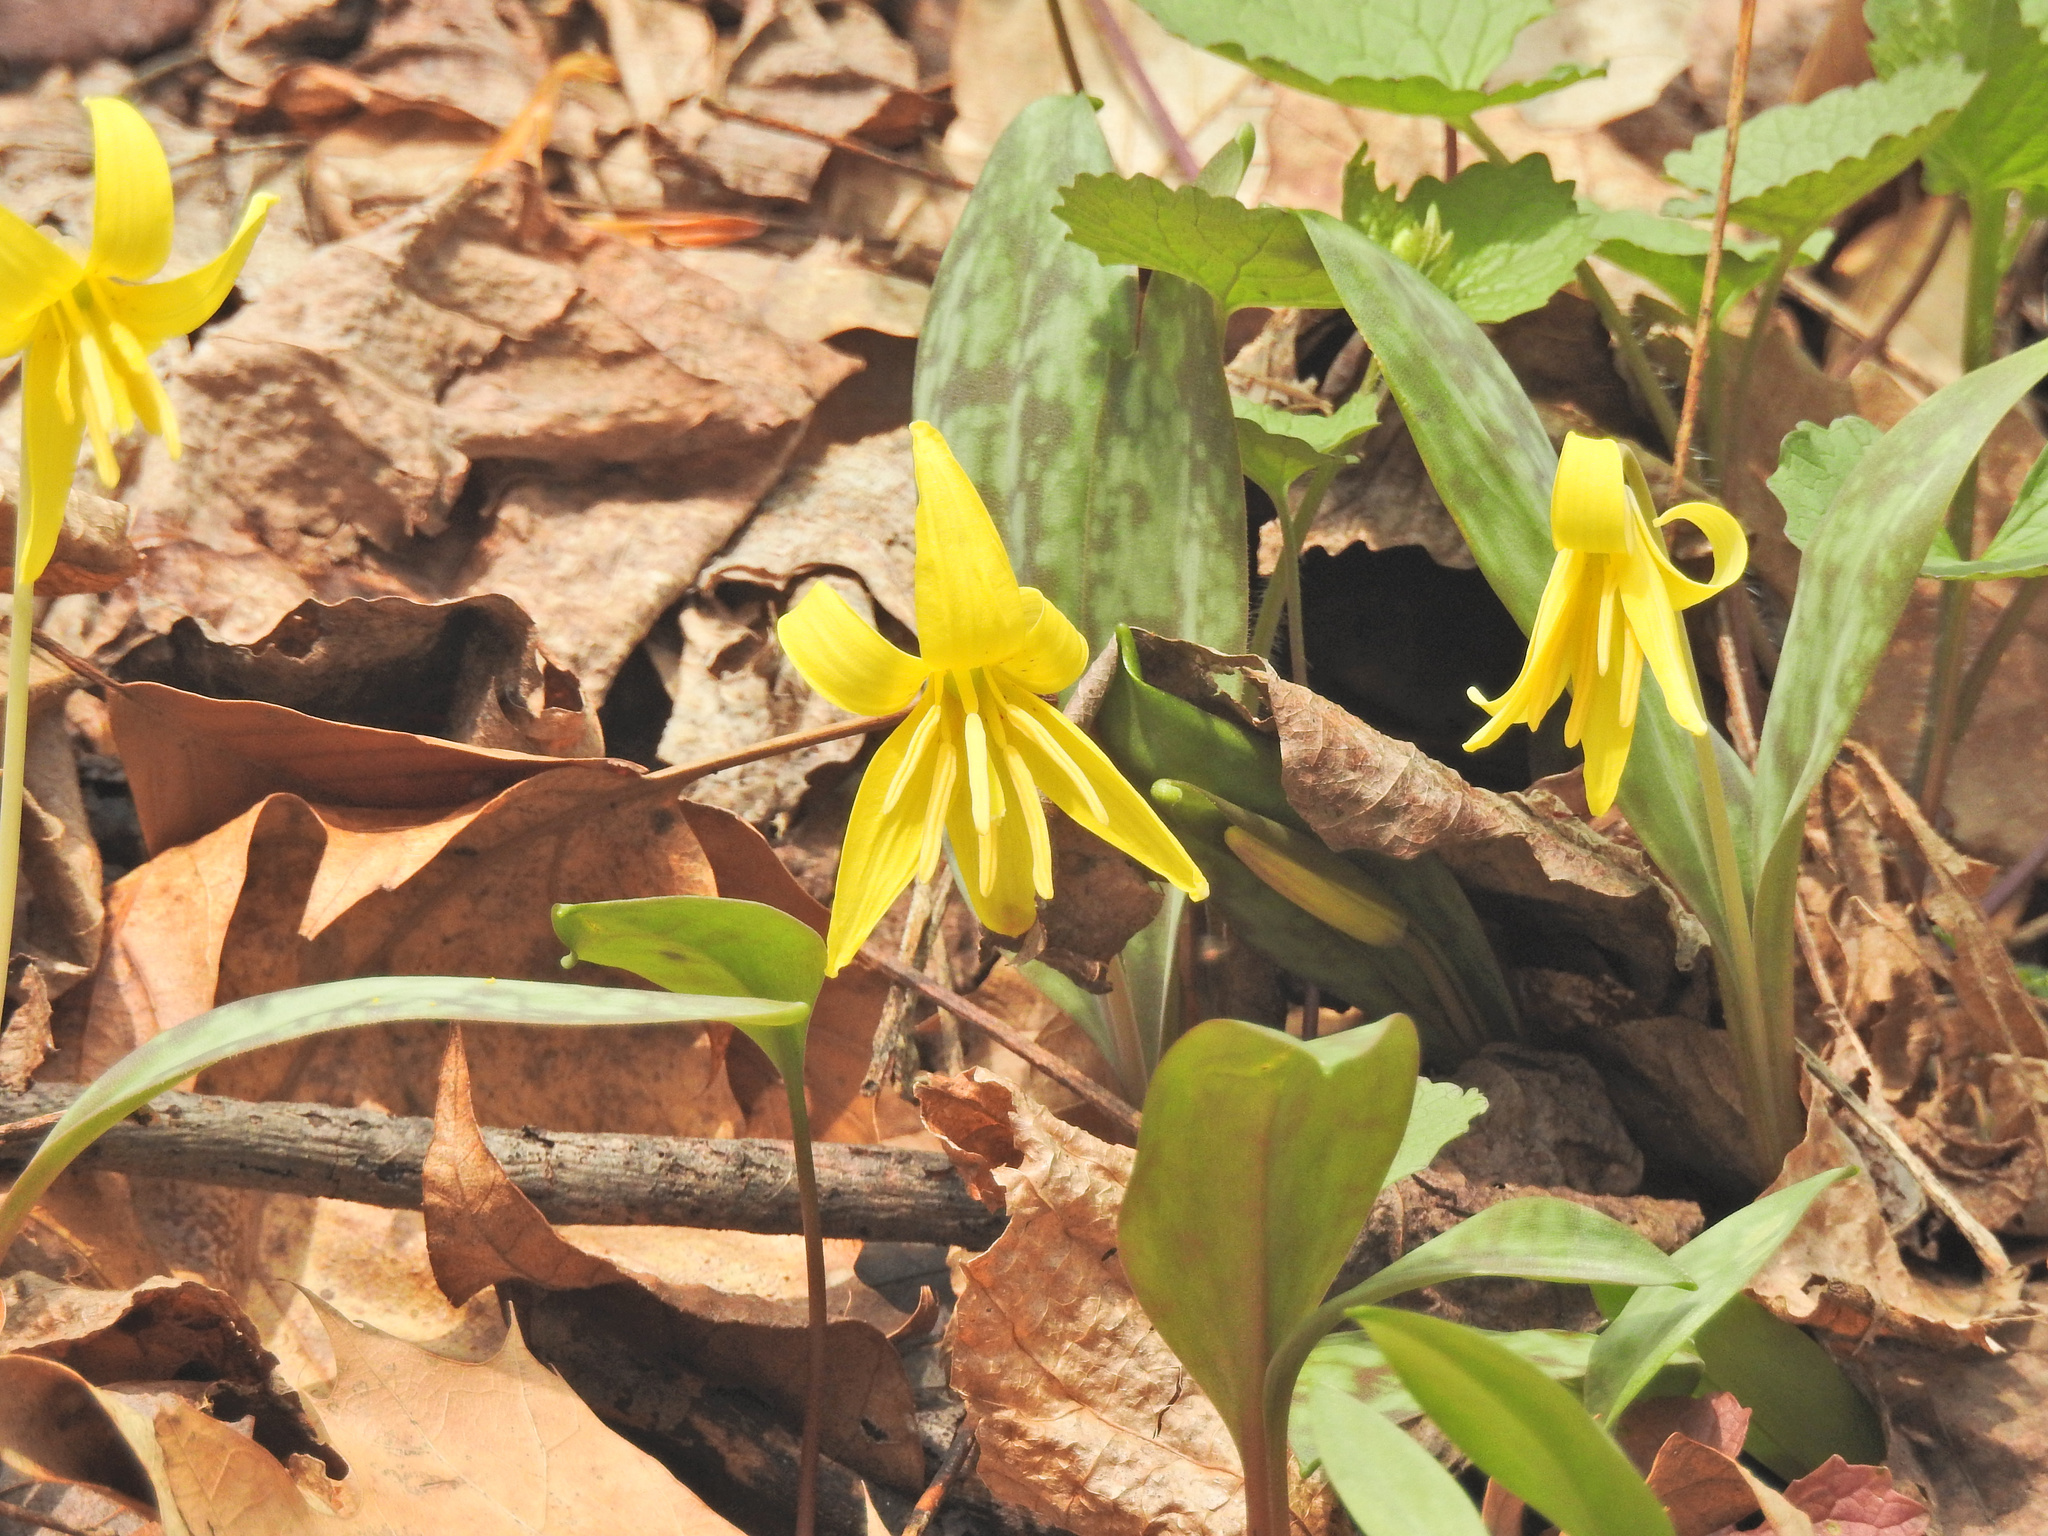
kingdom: Plantae
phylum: Tracheophyta
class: Liliopsida
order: Liliales
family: Liliaceae
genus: Erythronium
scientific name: Erythronium americanum
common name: Yellow adder's-tongue
